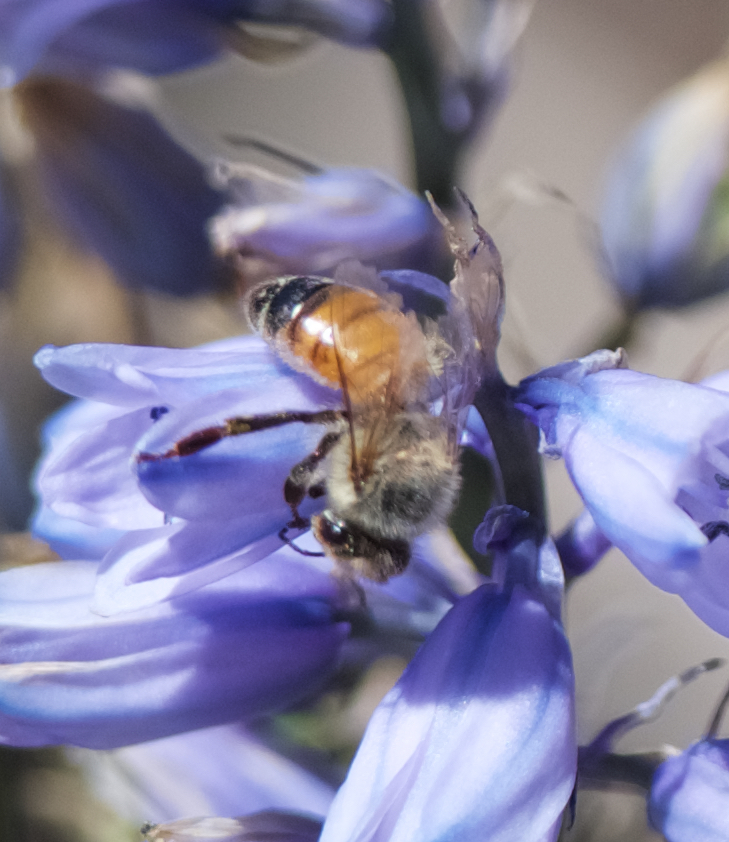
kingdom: Animalia
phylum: Arthropoda
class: Insecta
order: Hymenoptera
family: Apidae
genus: Apis
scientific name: Apis mellifera
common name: Honey bee
